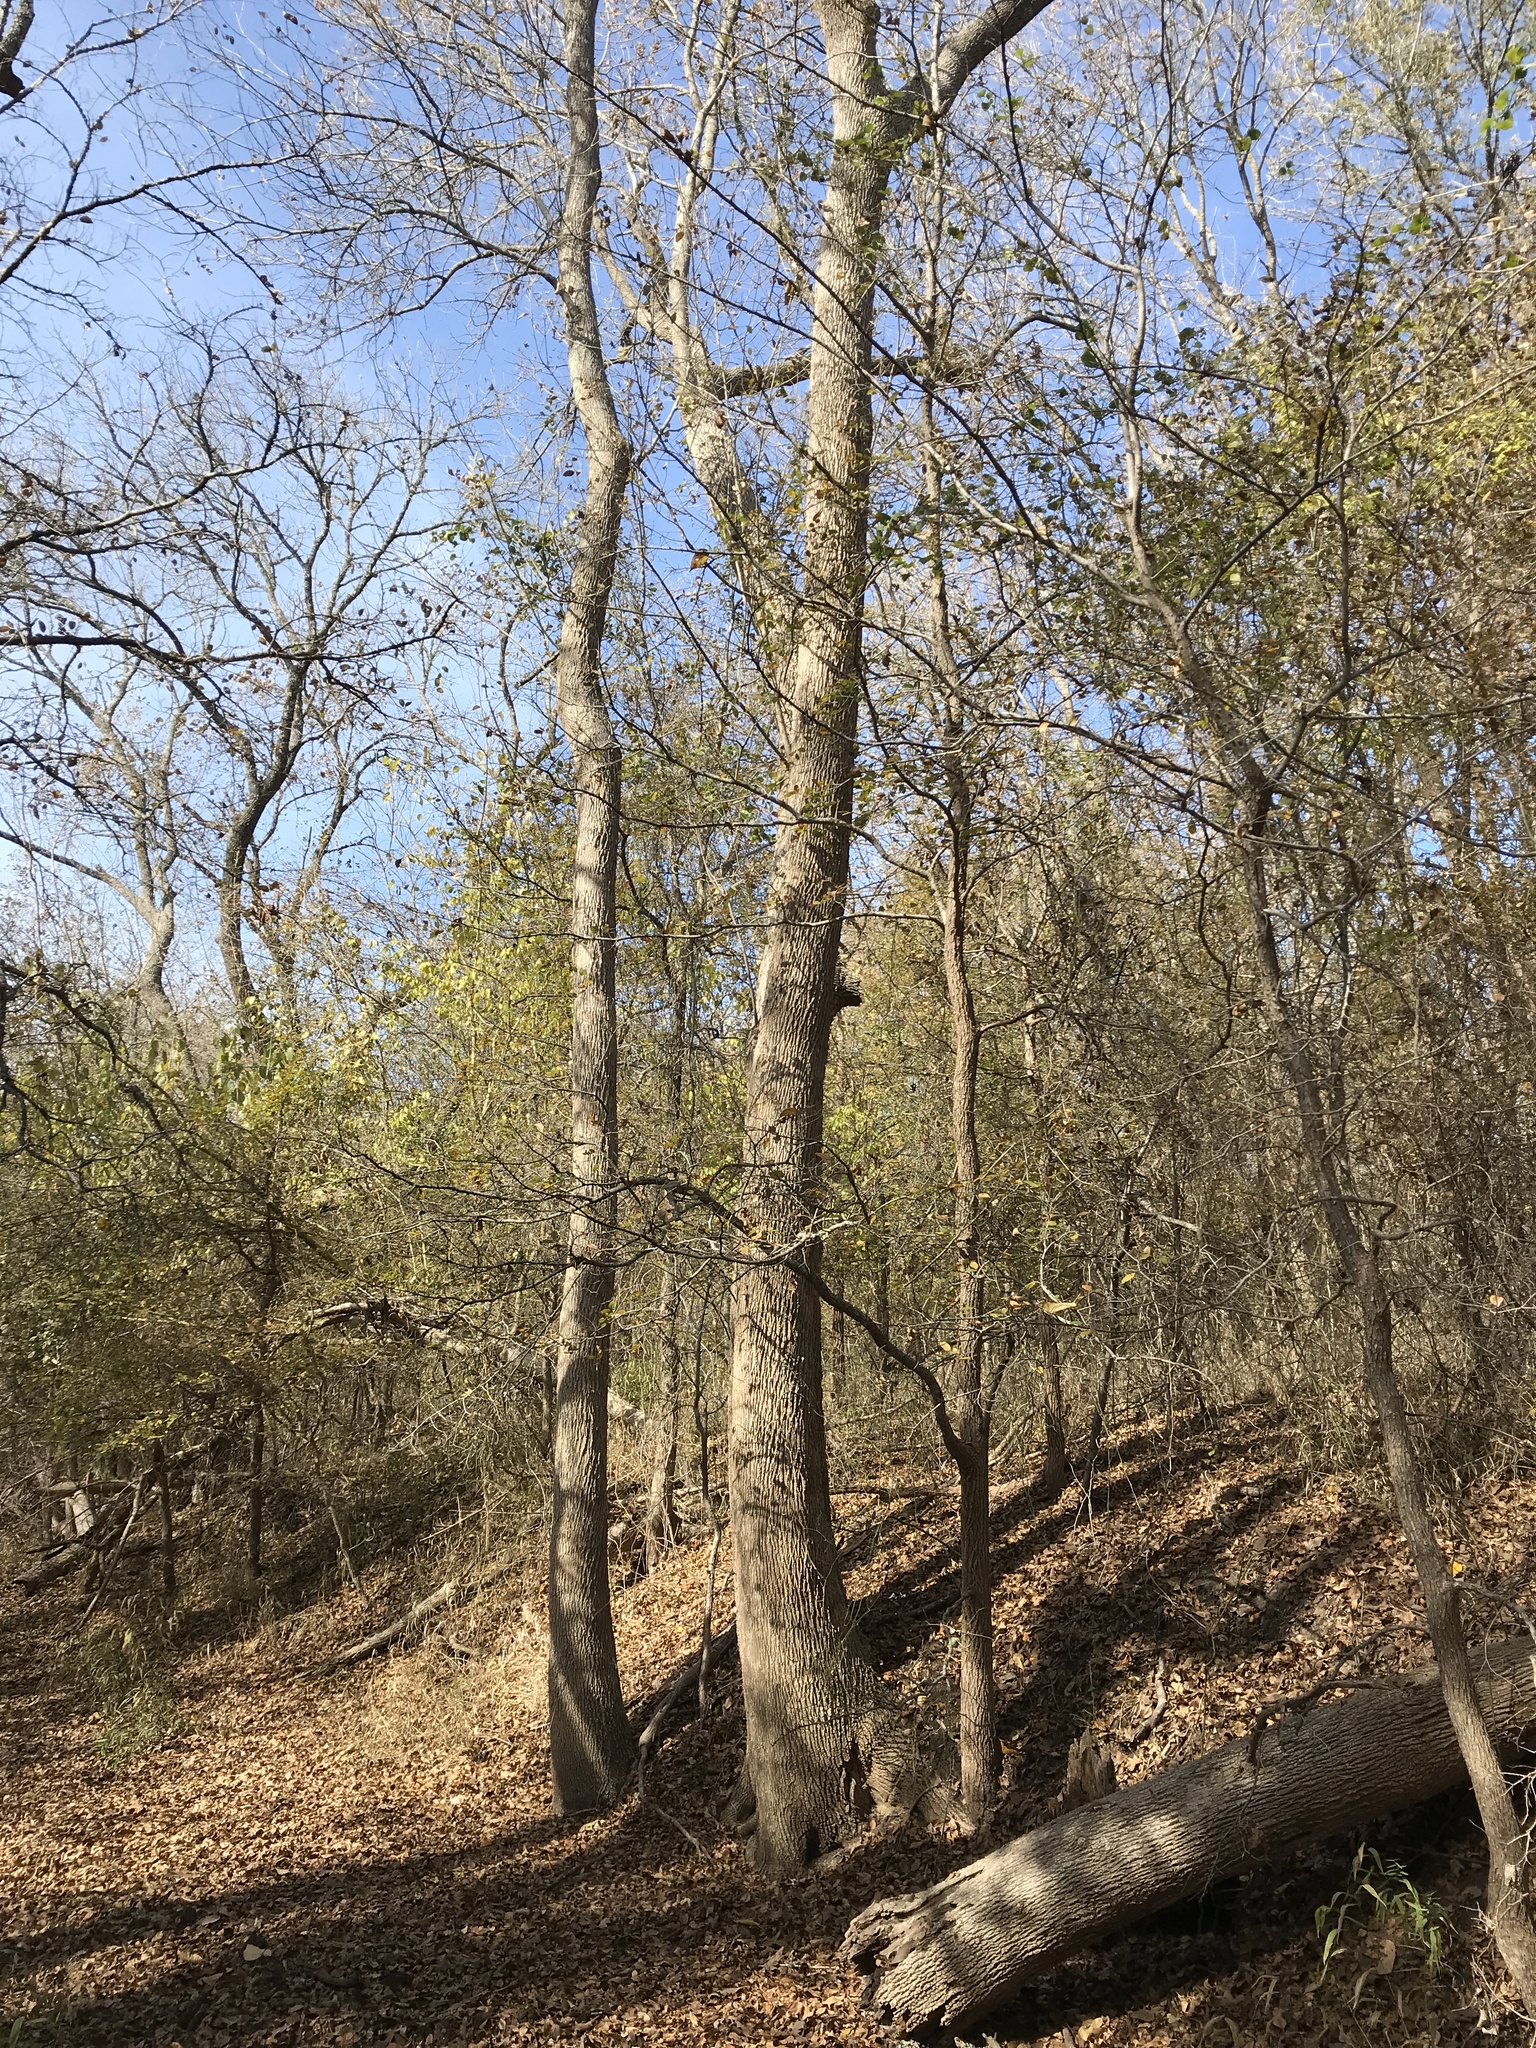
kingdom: Plantae
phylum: Tracheophyta
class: Magnoliopsida
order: Lamiales
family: Oleaceae
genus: Fraxinus
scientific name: Fraxinus pennsylvanica
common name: Green ash
